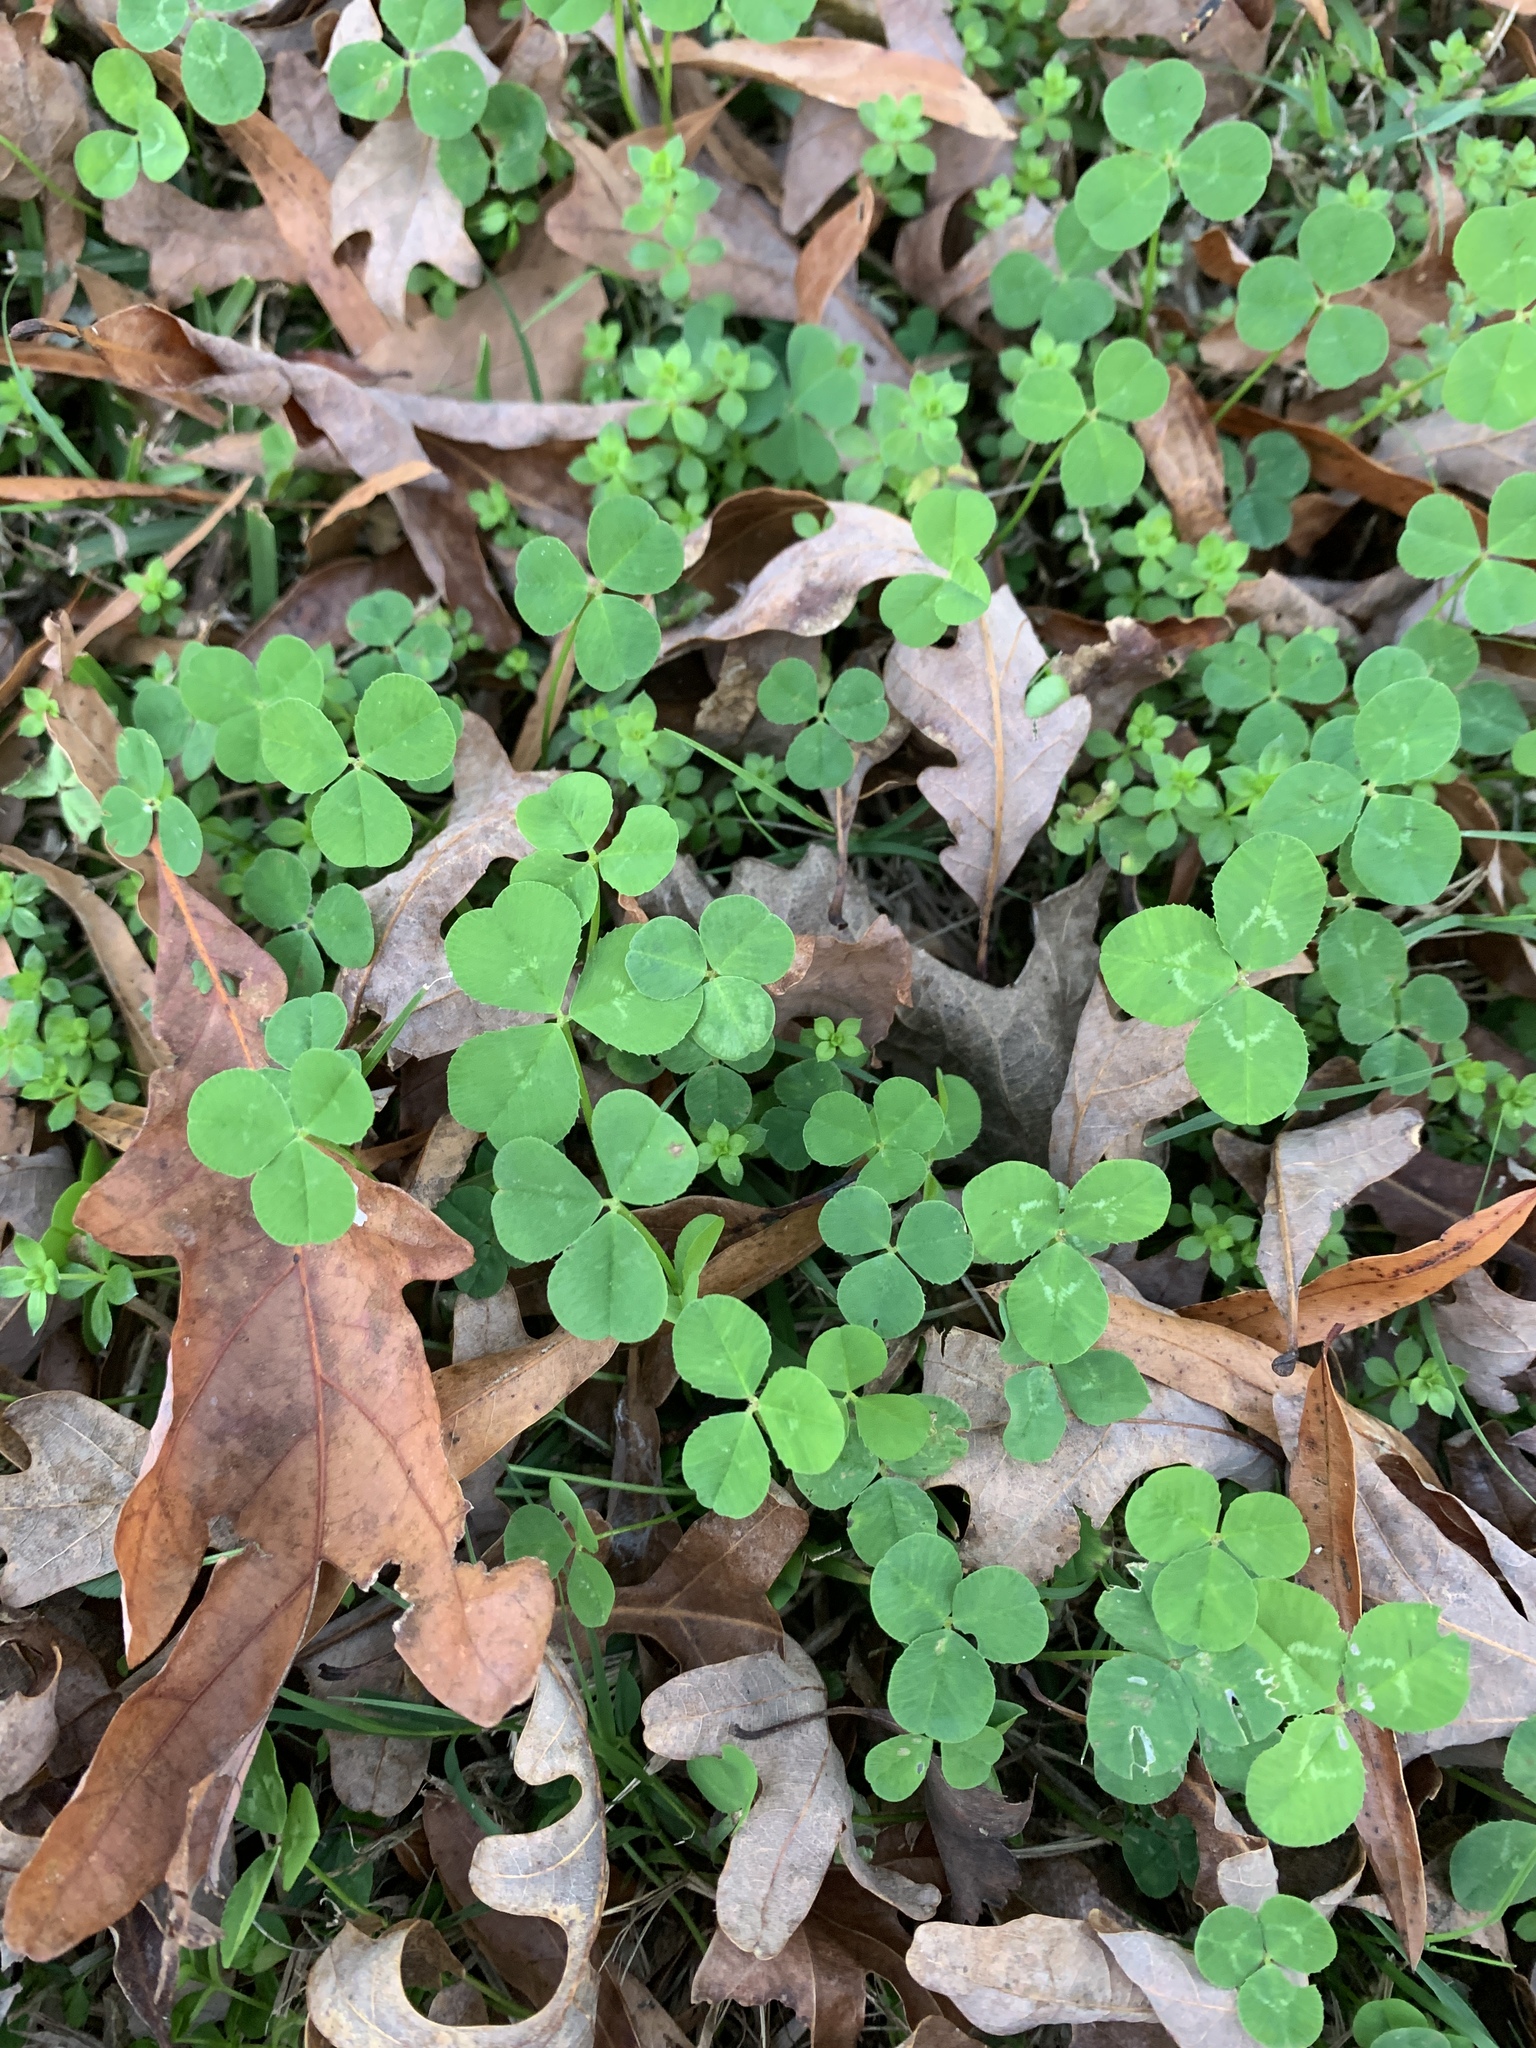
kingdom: Plantae
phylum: Tracheophyta
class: Magnoliopsida
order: Fabales
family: Fabaceae
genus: Trifolium
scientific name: Trifolium repens
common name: White clover
